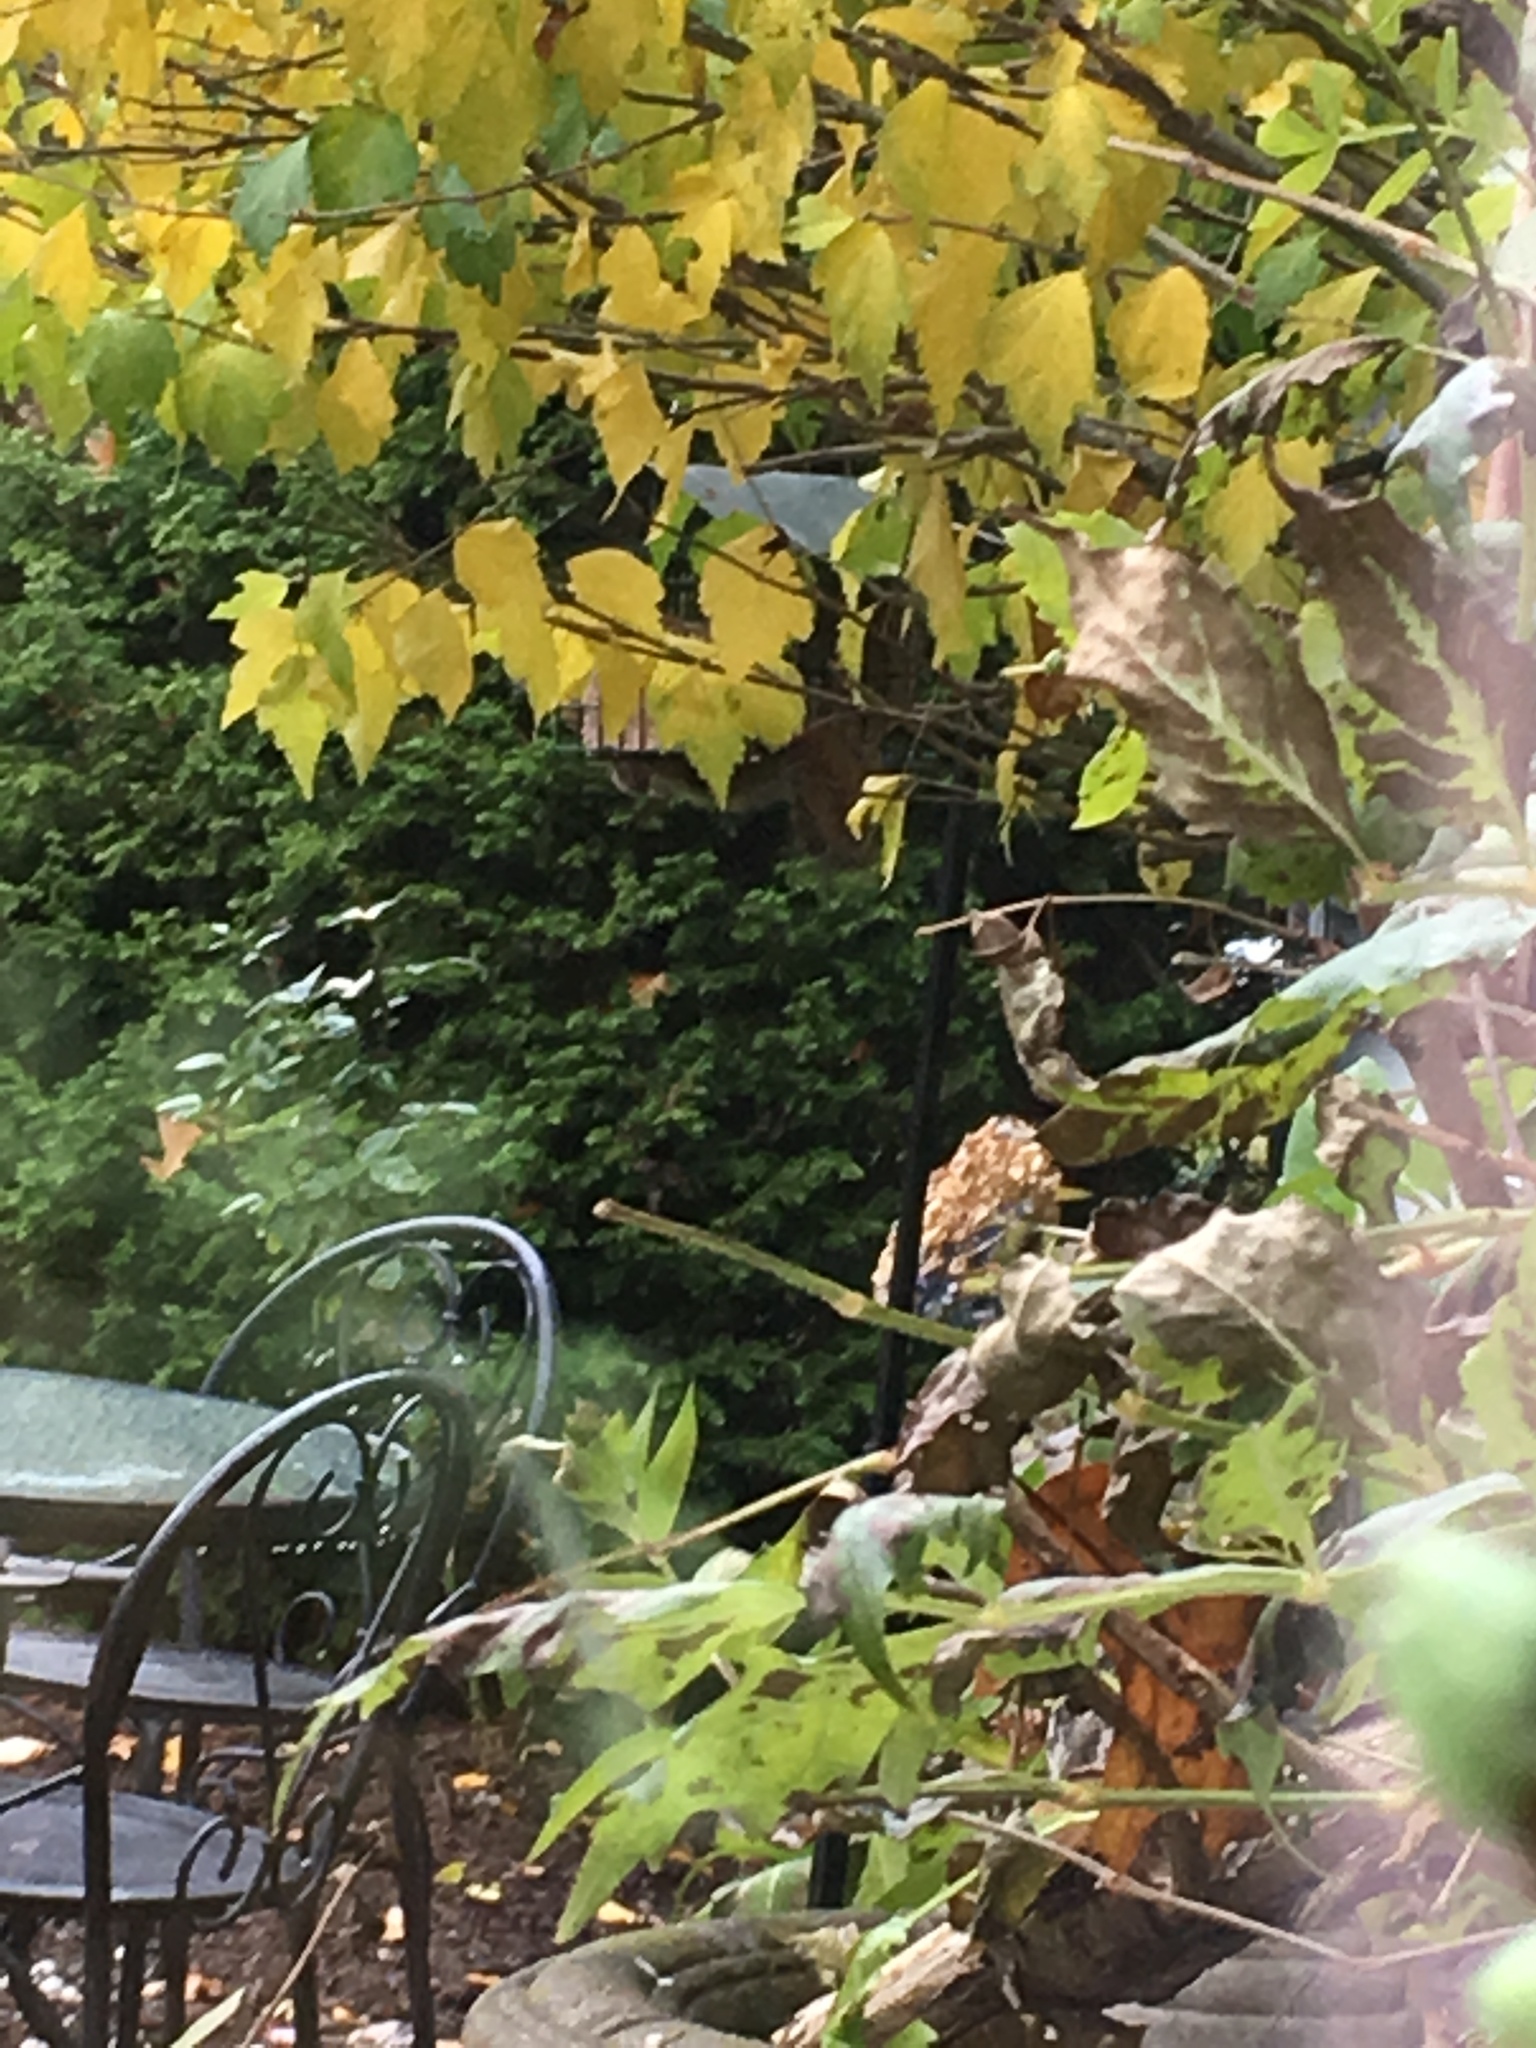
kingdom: Animalia
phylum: Chordata
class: Mammalia
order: Rodentia
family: Sciuridae
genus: Tamiasciurus
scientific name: Tamiasciurus hudsonicus
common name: Red squirrel
